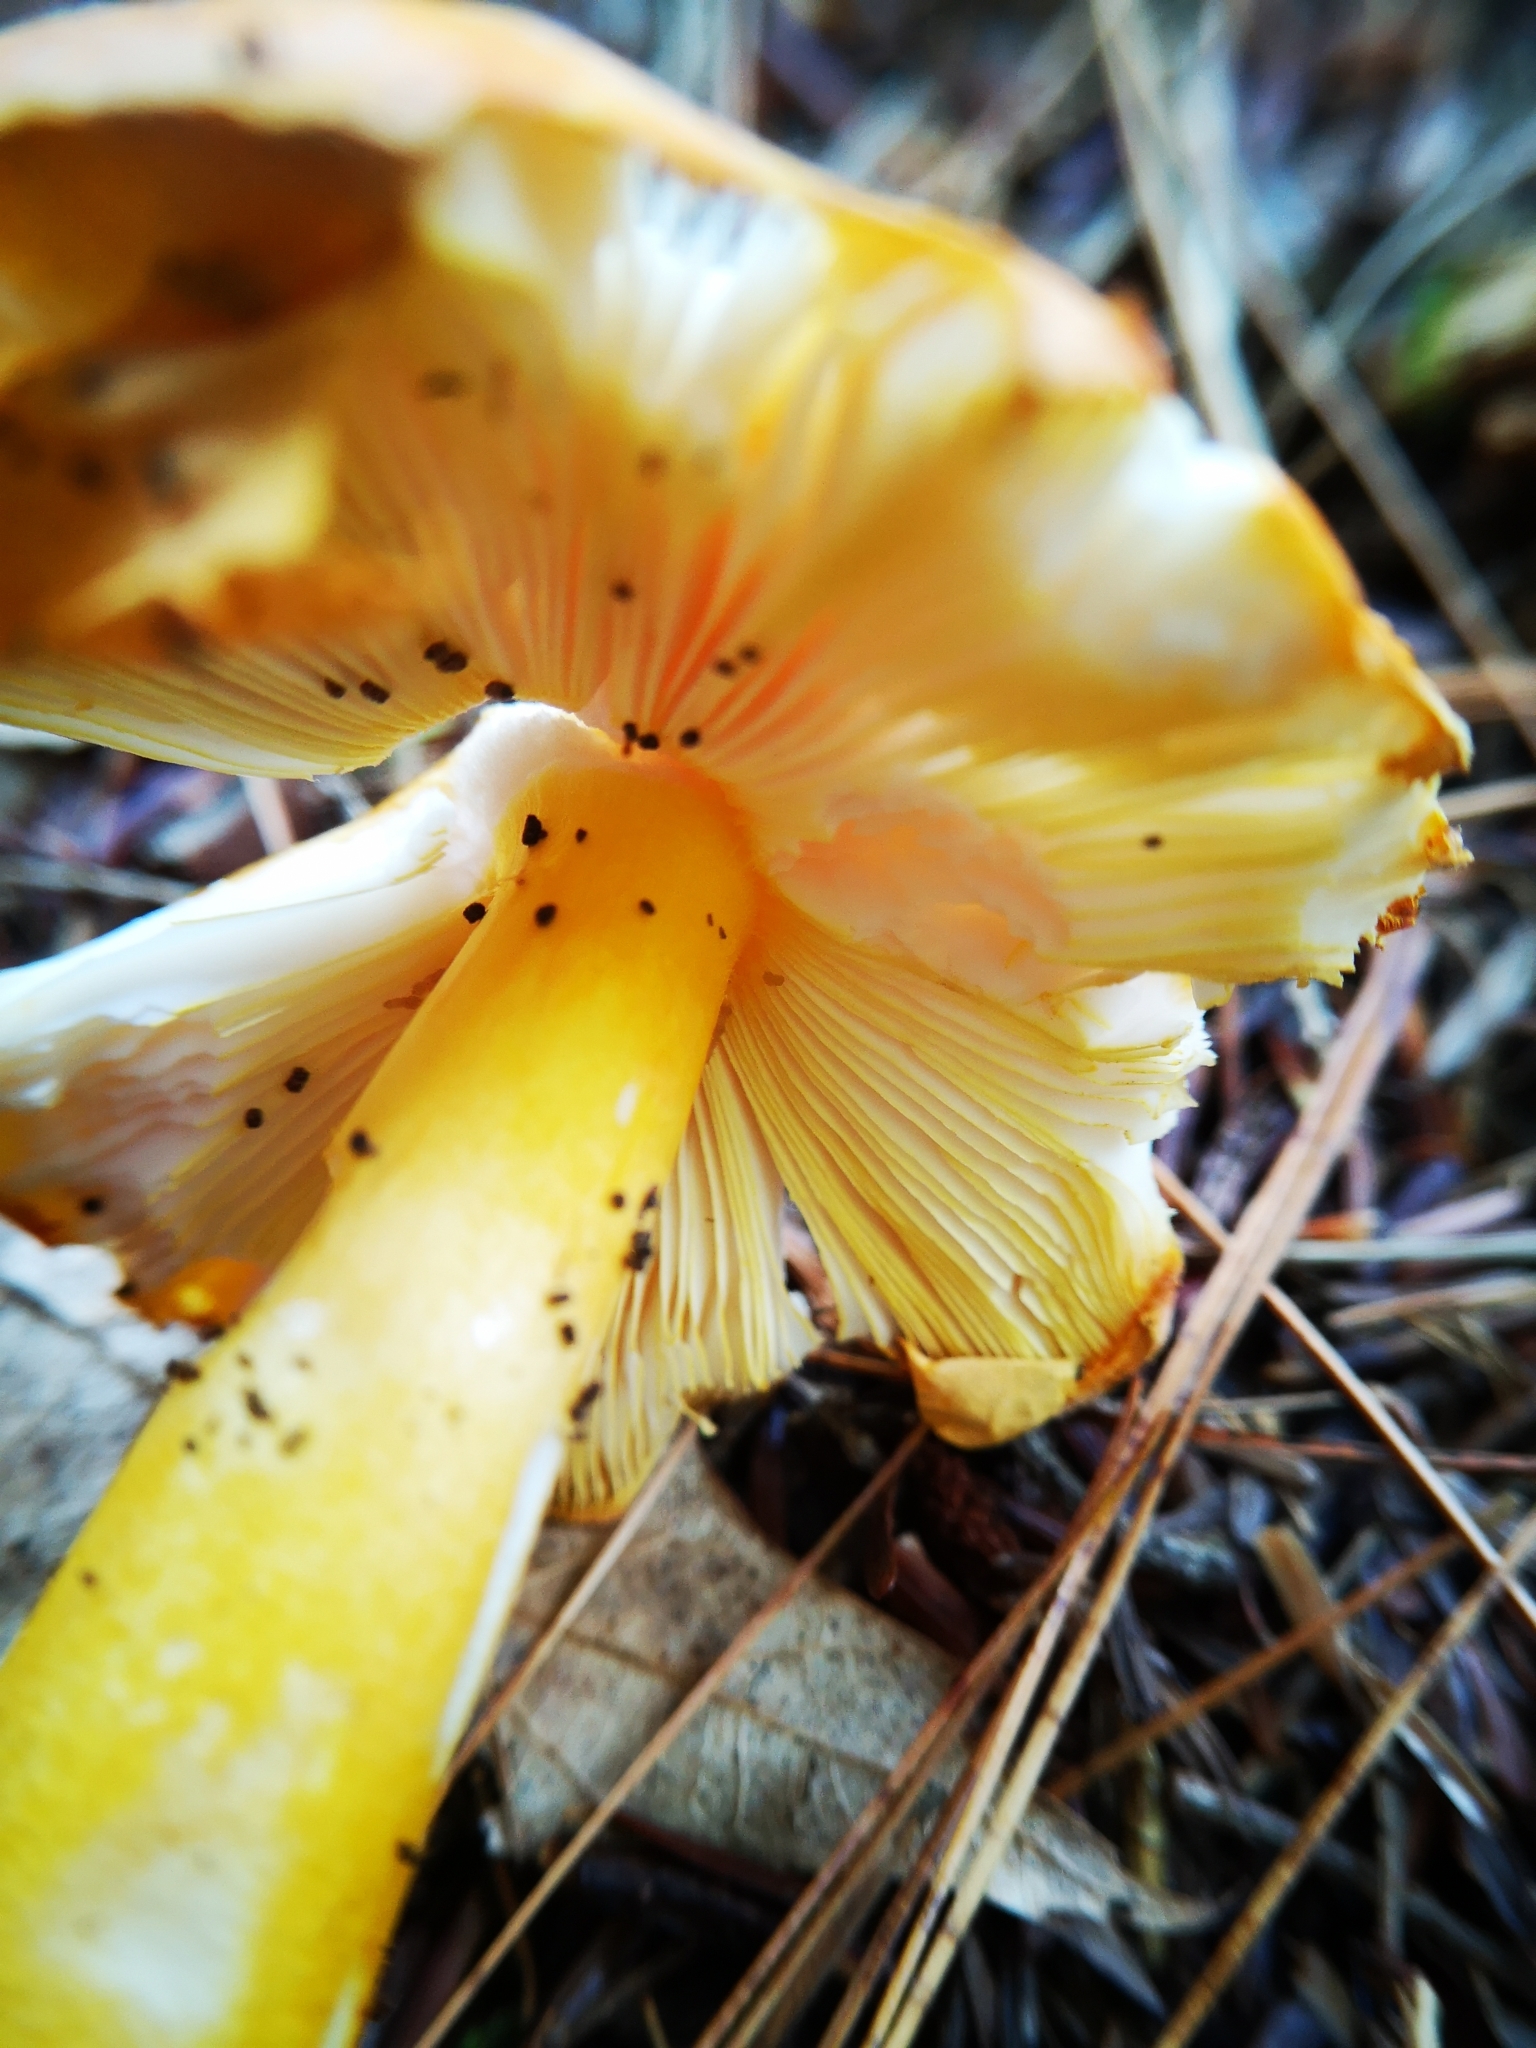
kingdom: Fungi
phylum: Basidiomycota
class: Agaricomycetes
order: Agaricales
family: Amanitaceae
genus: Amanita
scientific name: Amanita flavoconia
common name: Yellow patches
